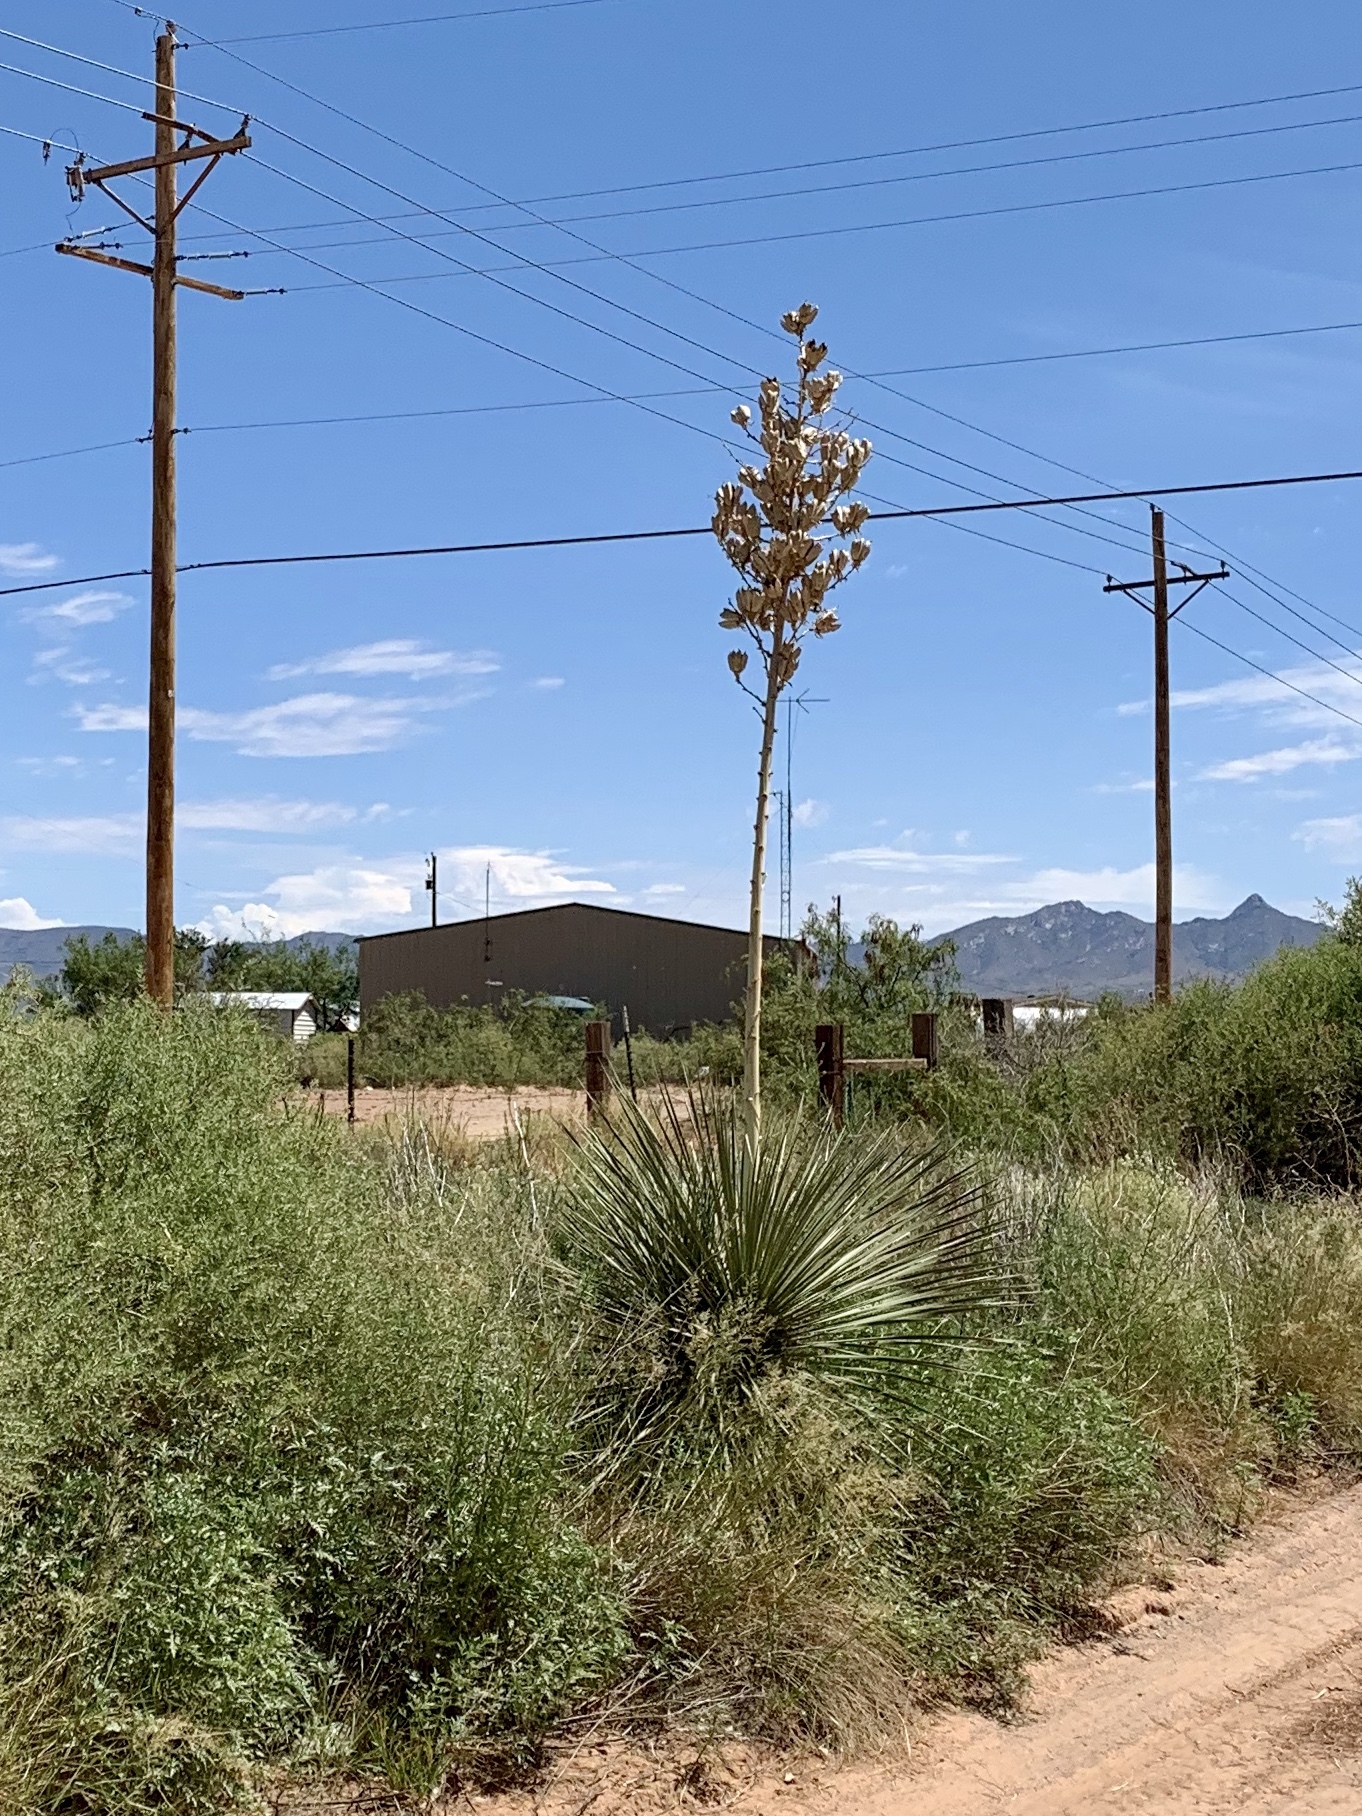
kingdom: Plantae
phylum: Tracheophyta
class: Liliopsida
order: Asparagales
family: Asparagaceae
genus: Yucca
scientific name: Yucca elata
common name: Palmella
